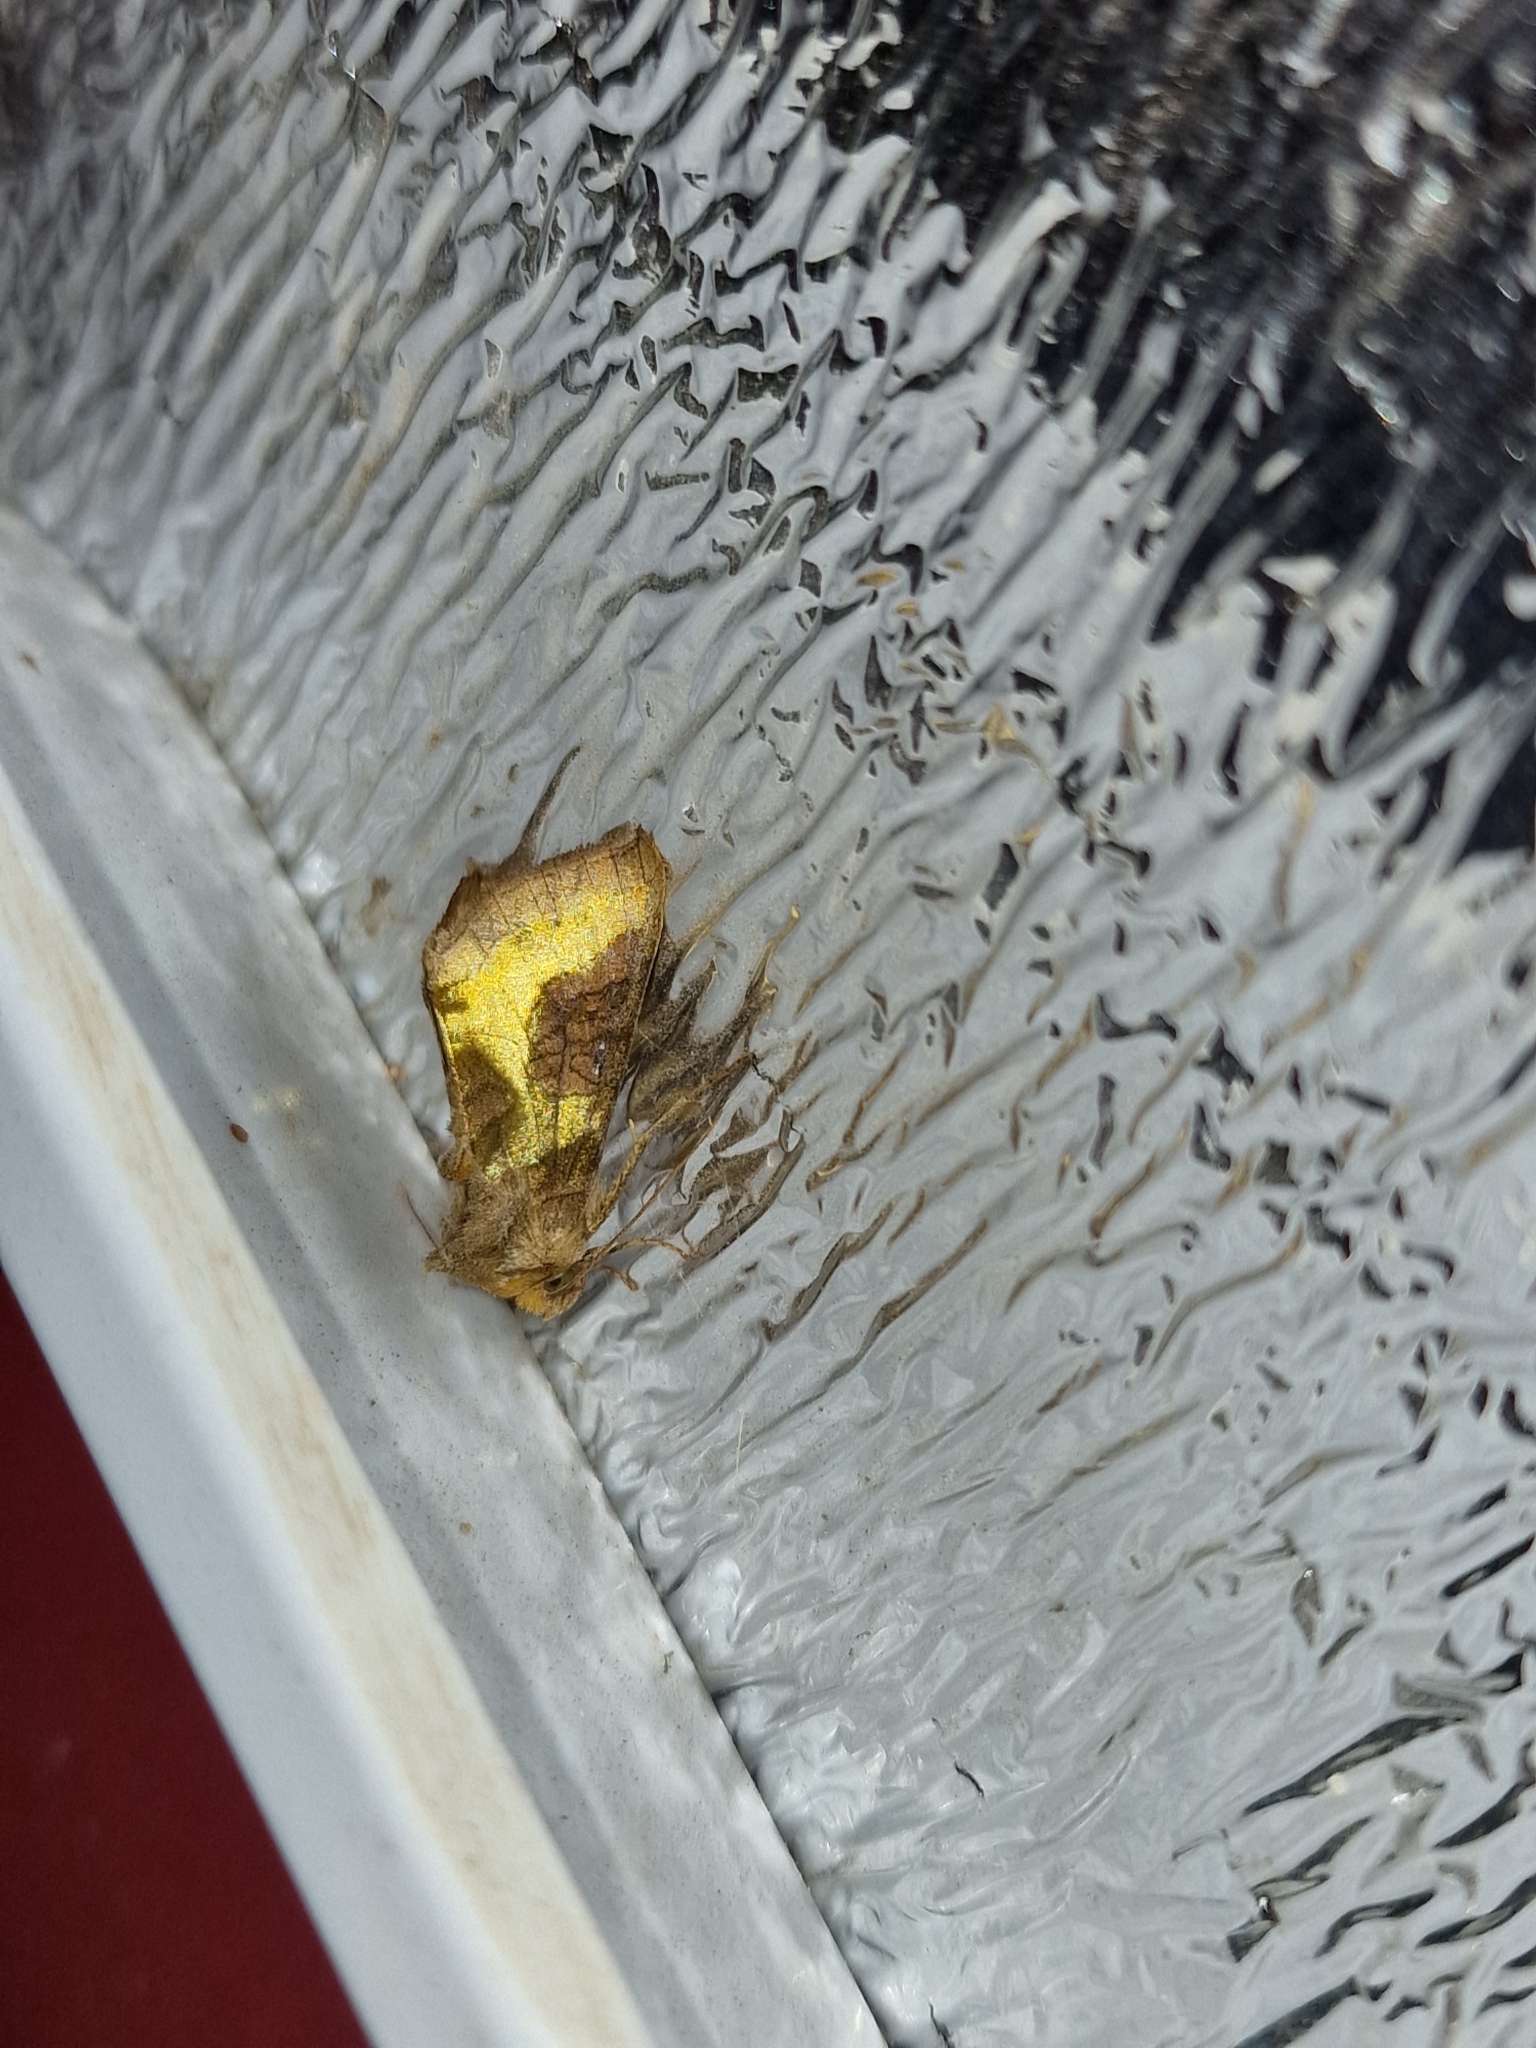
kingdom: Animalia
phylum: Arthropoda
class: Insecta
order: Lepidoptera
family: Noctuidae
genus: Diachrysia
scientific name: Diachrysia chrysitis
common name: Burnished brass
